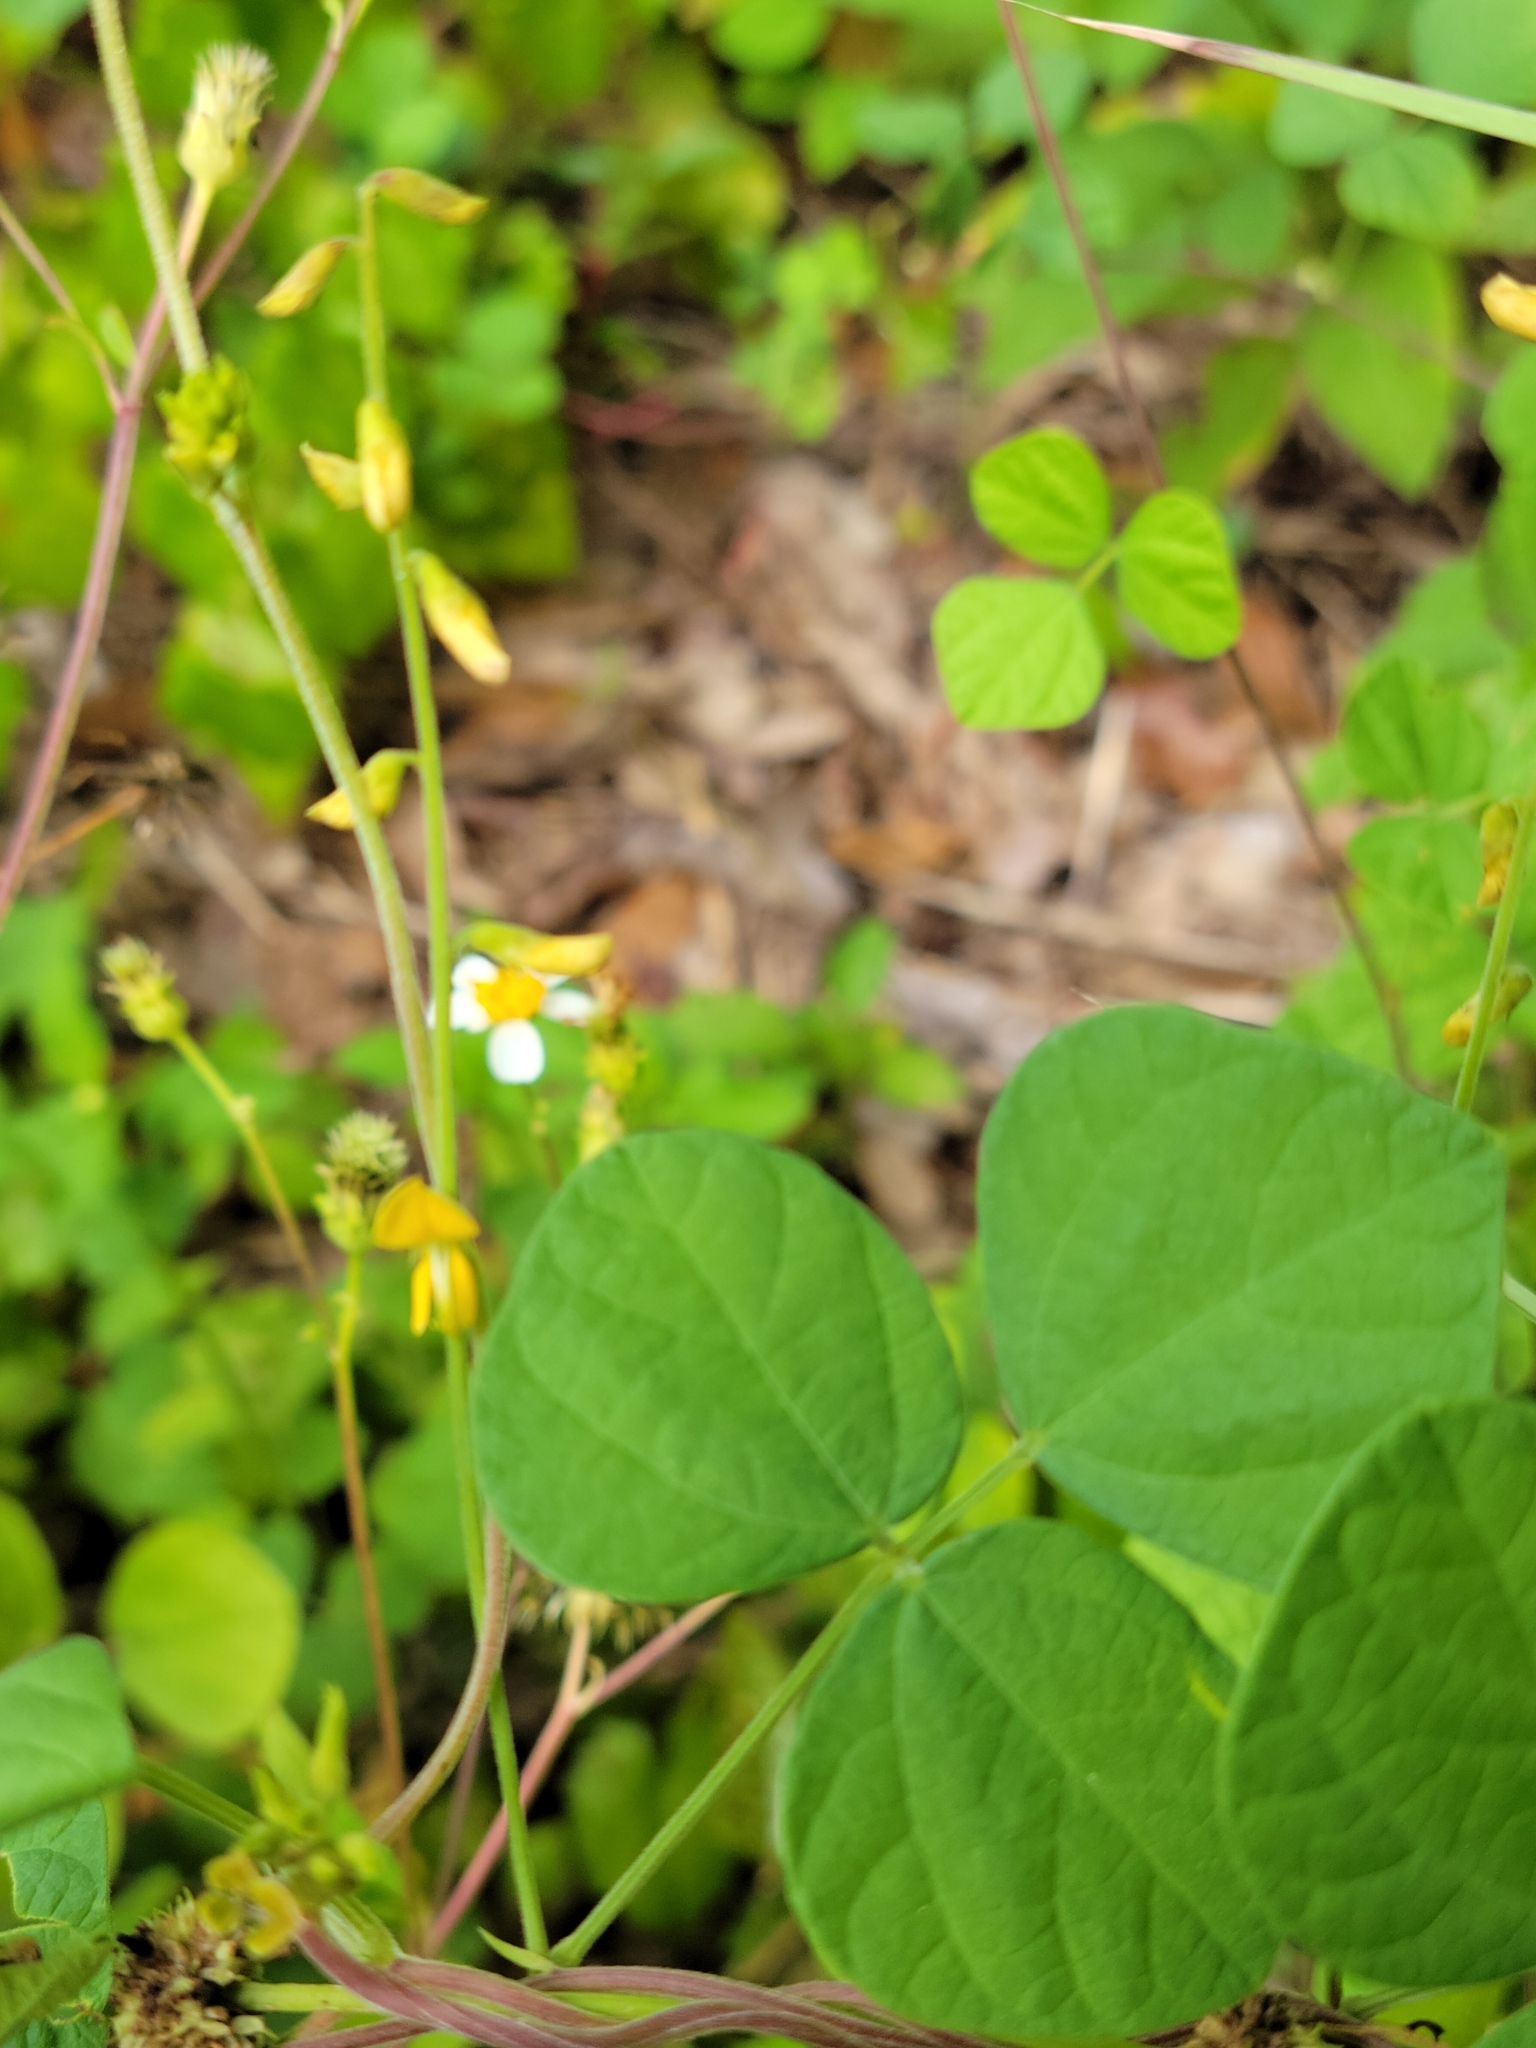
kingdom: Plantae
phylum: Tracheophyta
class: Magnoliopsida
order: Fabales
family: Fabaceae
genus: Rhynchosia
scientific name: Rhynchosia minima
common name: Least snoutbean
